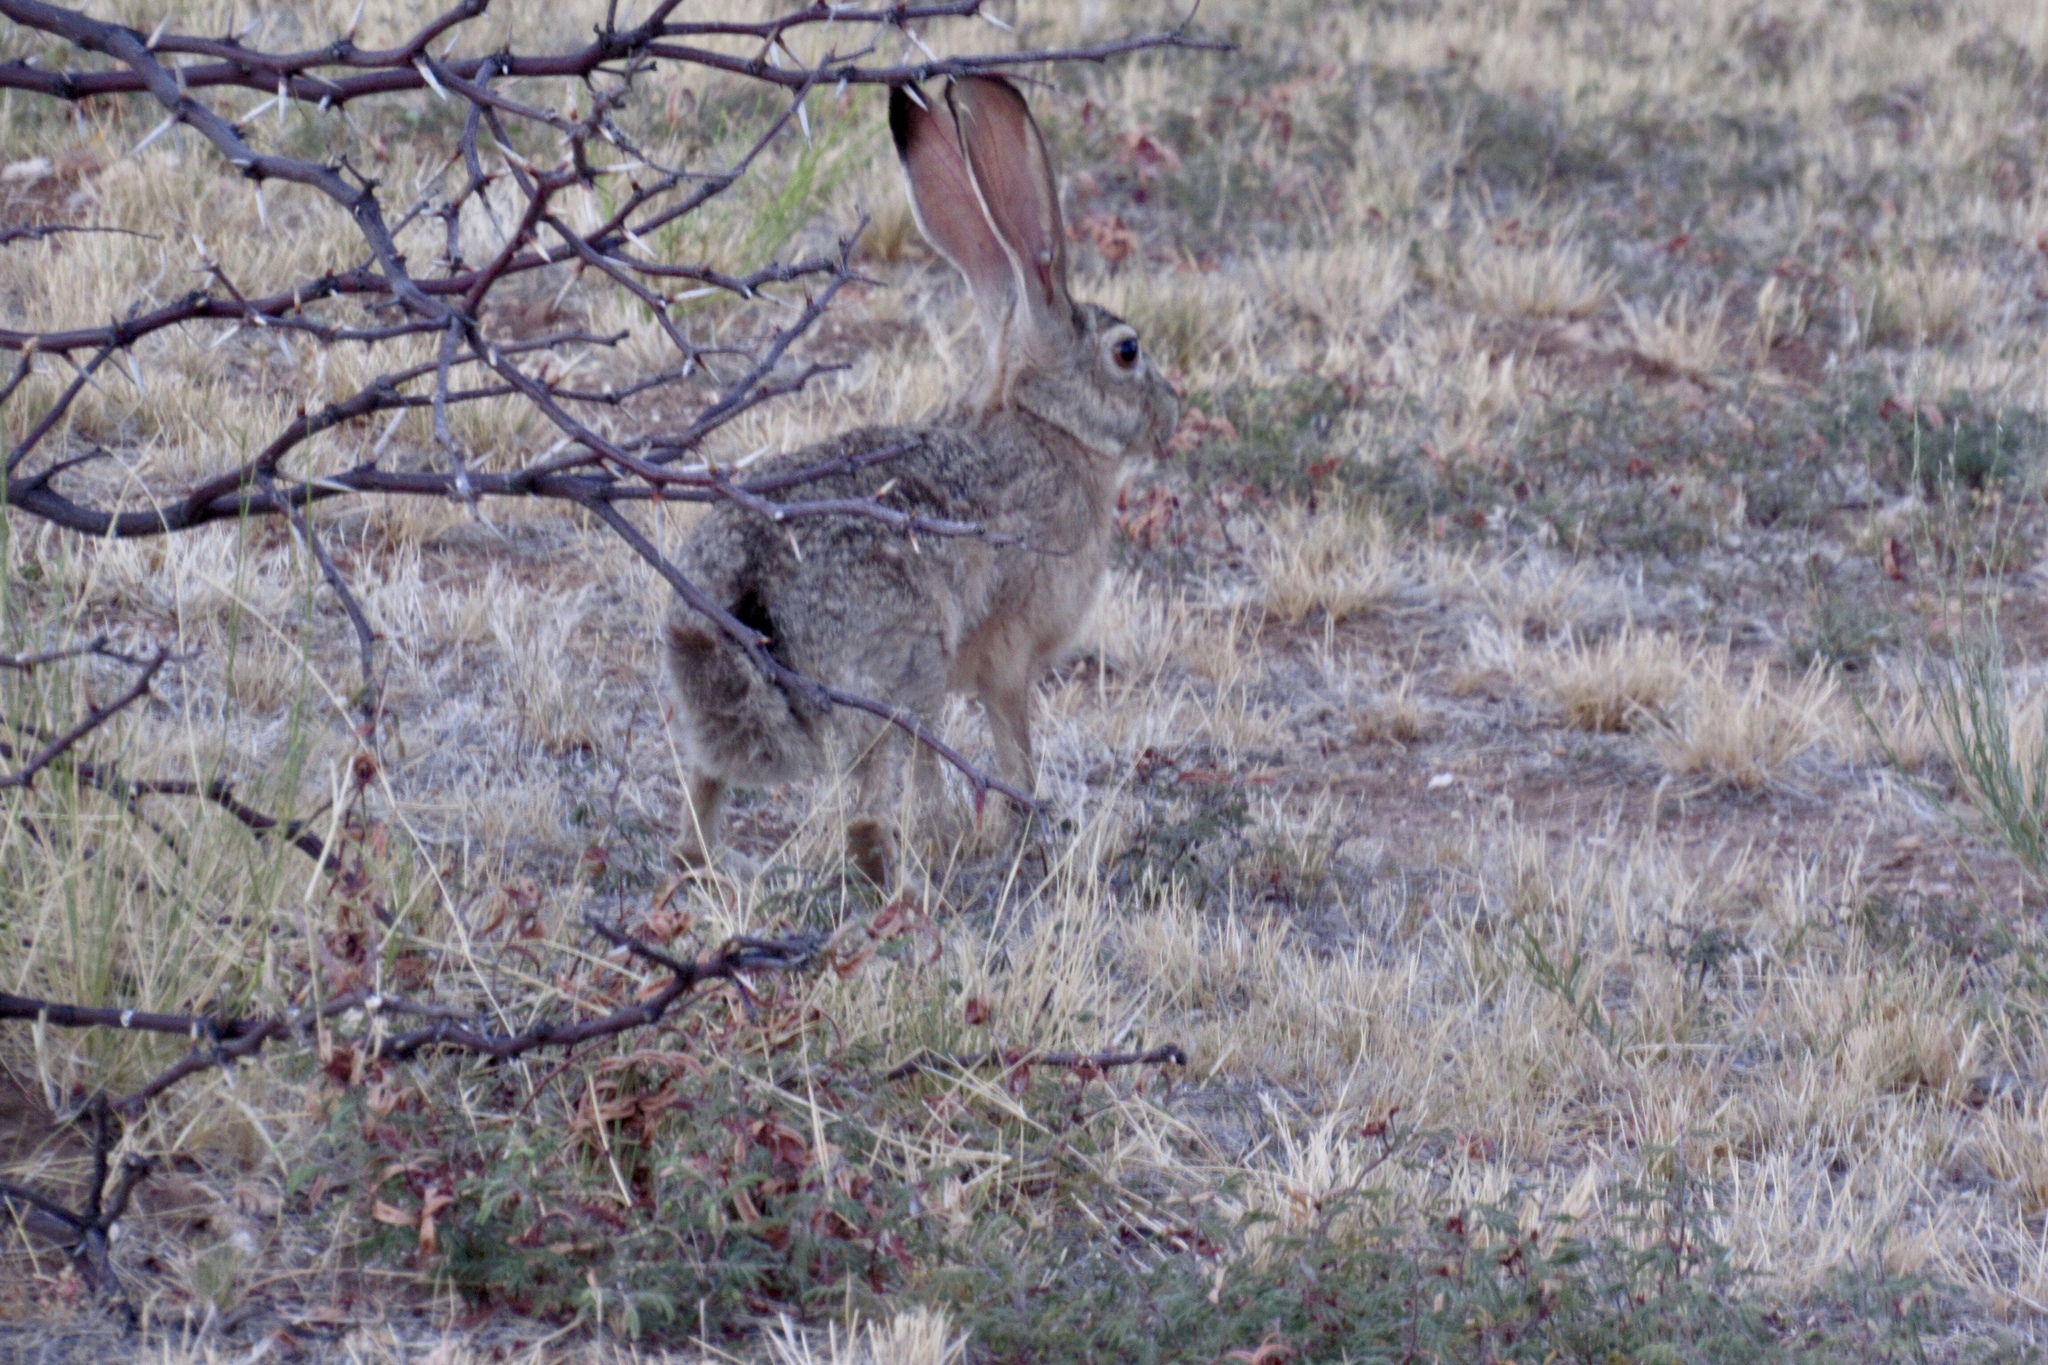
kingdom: Animalia
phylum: Chordata
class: Mammalia
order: Lagomorpha
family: Leporidae
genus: Lepus
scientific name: Lepus californicus
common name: Black-tailed jackrabbit
